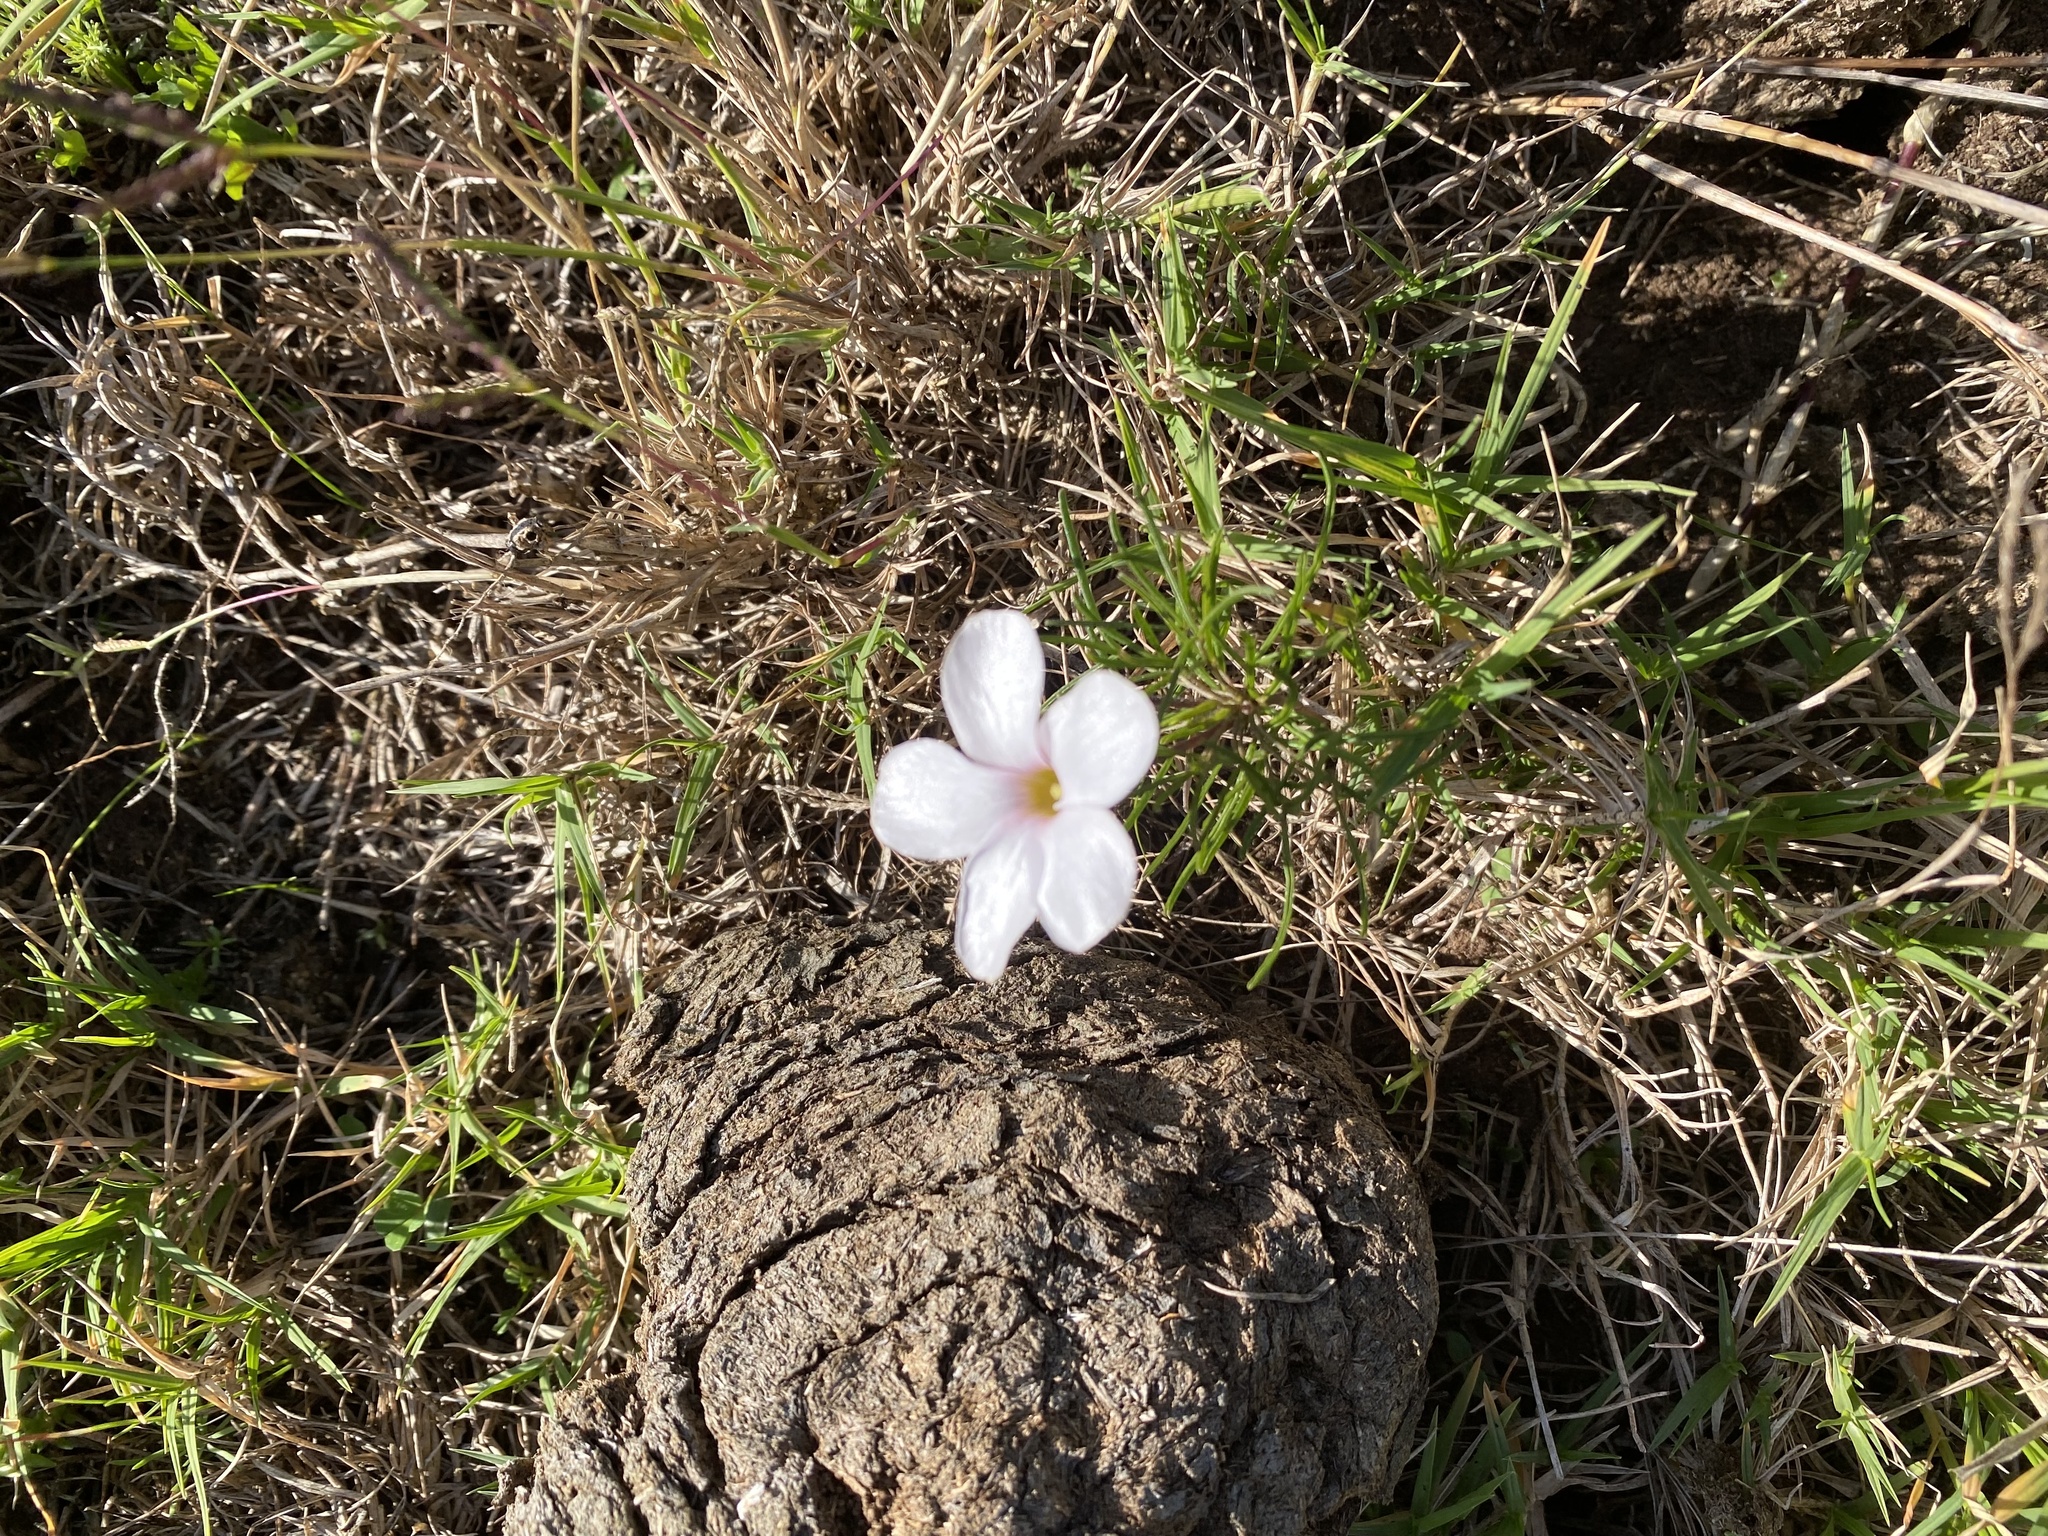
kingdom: Plantae
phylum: Tracheophyta
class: Magnoliopsida
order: Oxalidales
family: Oxalidaceae
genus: Oxalis
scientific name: Oxalis polyphylla
